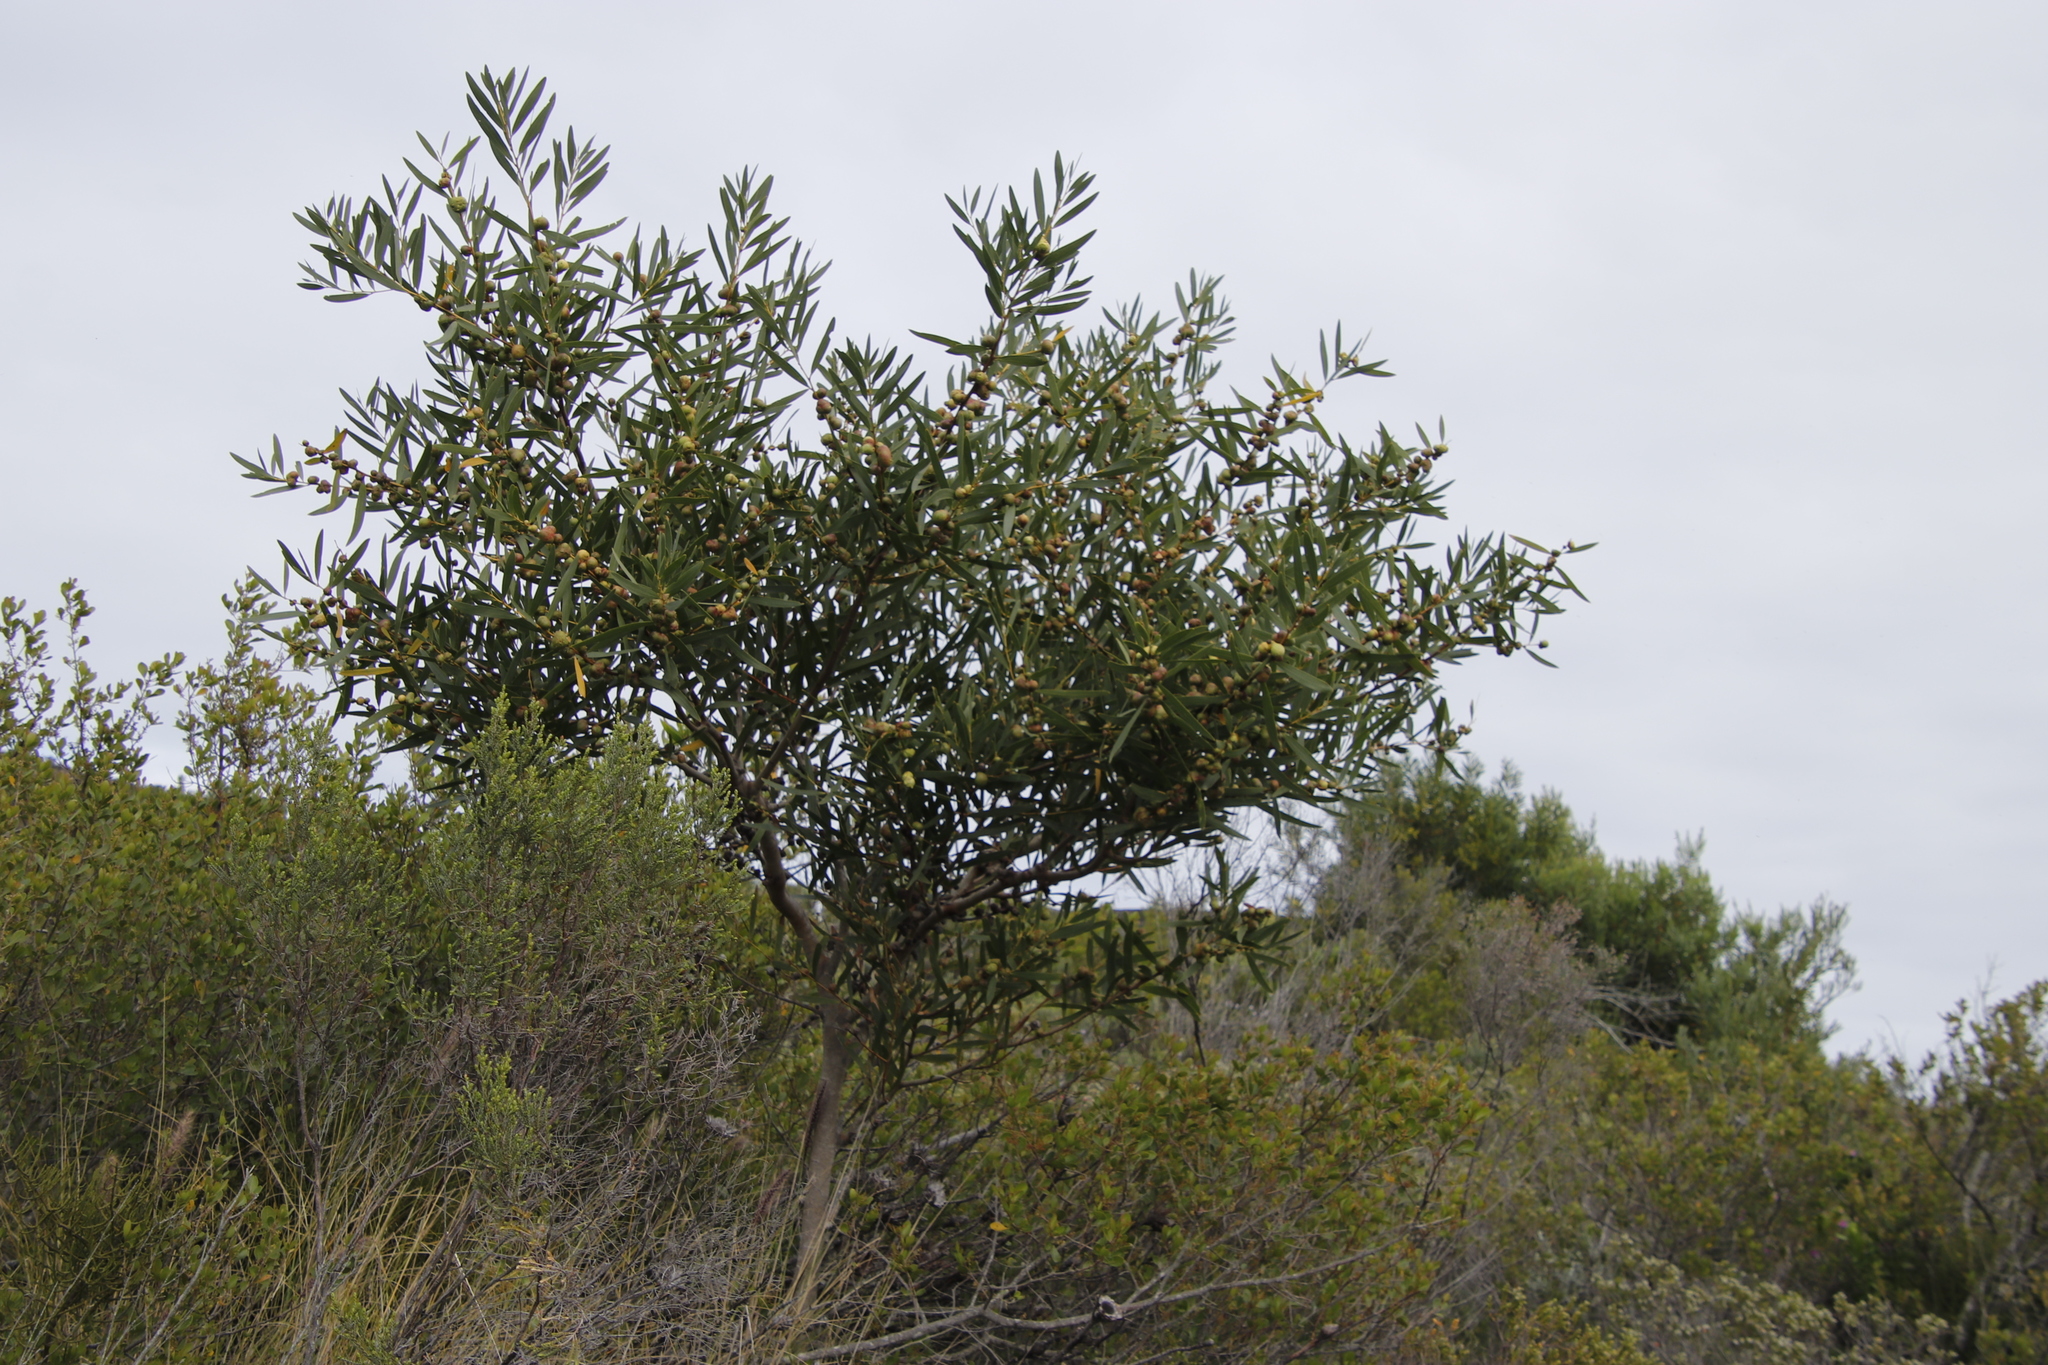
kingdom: Plantae
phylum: Tracheophyta
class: Magnoliopsida
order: Fabales
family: Fabaceae
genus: Acacia
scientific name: Acacia longifolia
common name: Sydney golden wattle
